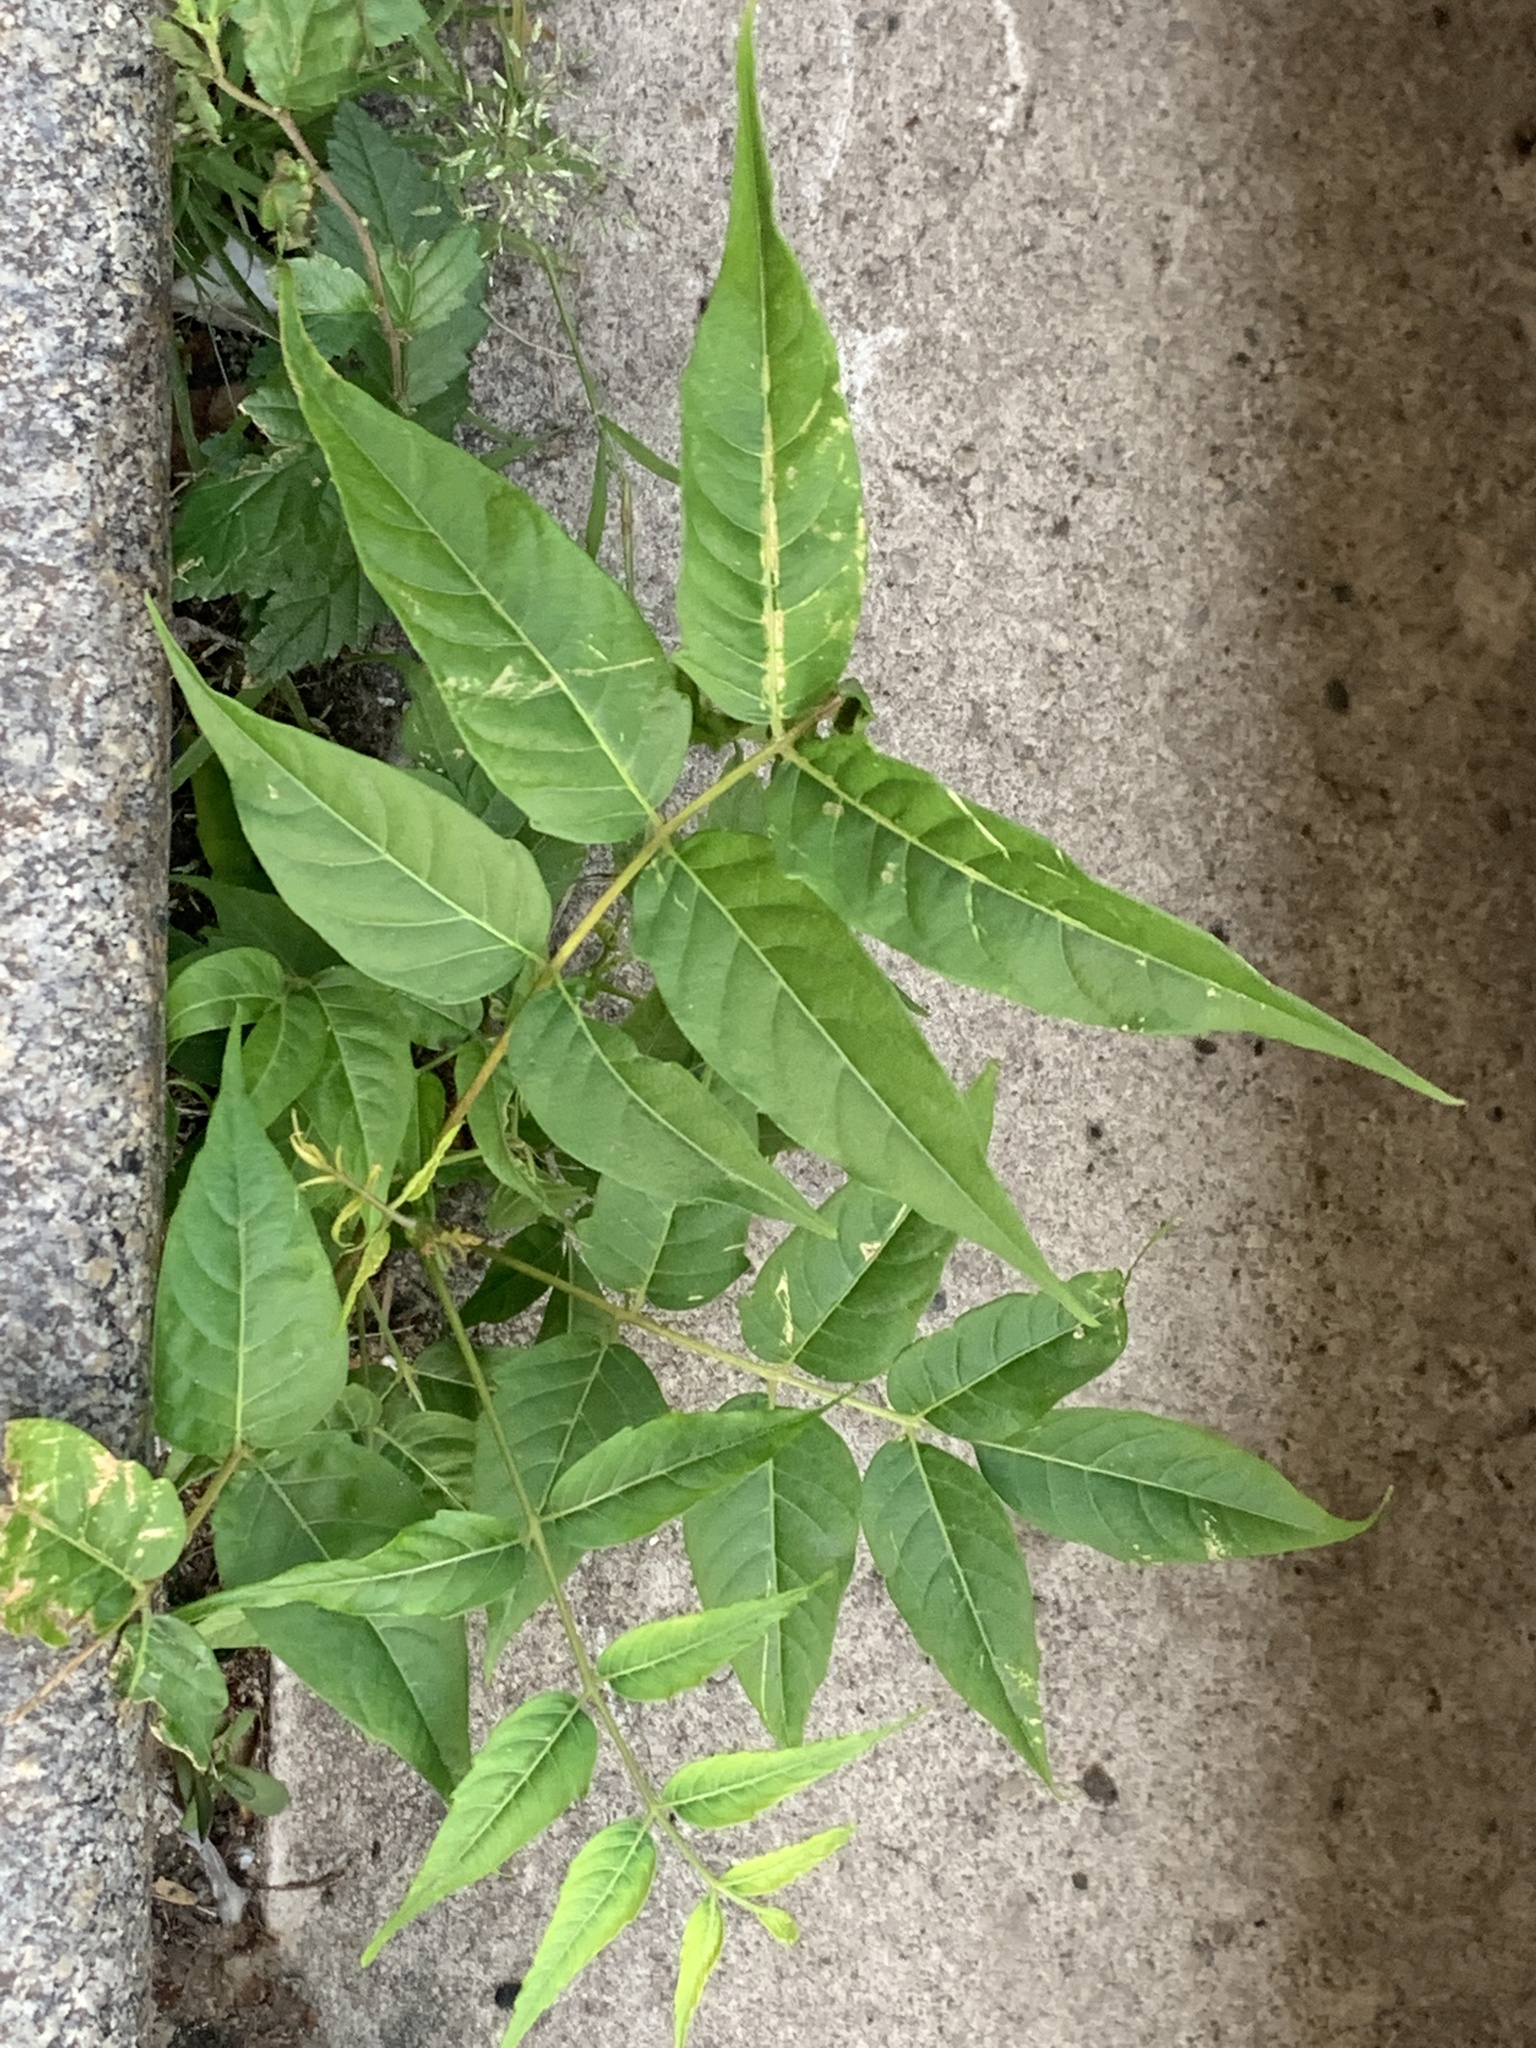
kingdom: Plantae
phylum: Tracheophyta
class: Magnoliopsida
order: Sapindales
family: Simaroubaceae
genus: Ailanthus
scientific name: Ailanthus altissima
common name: Tree-of-heaven
